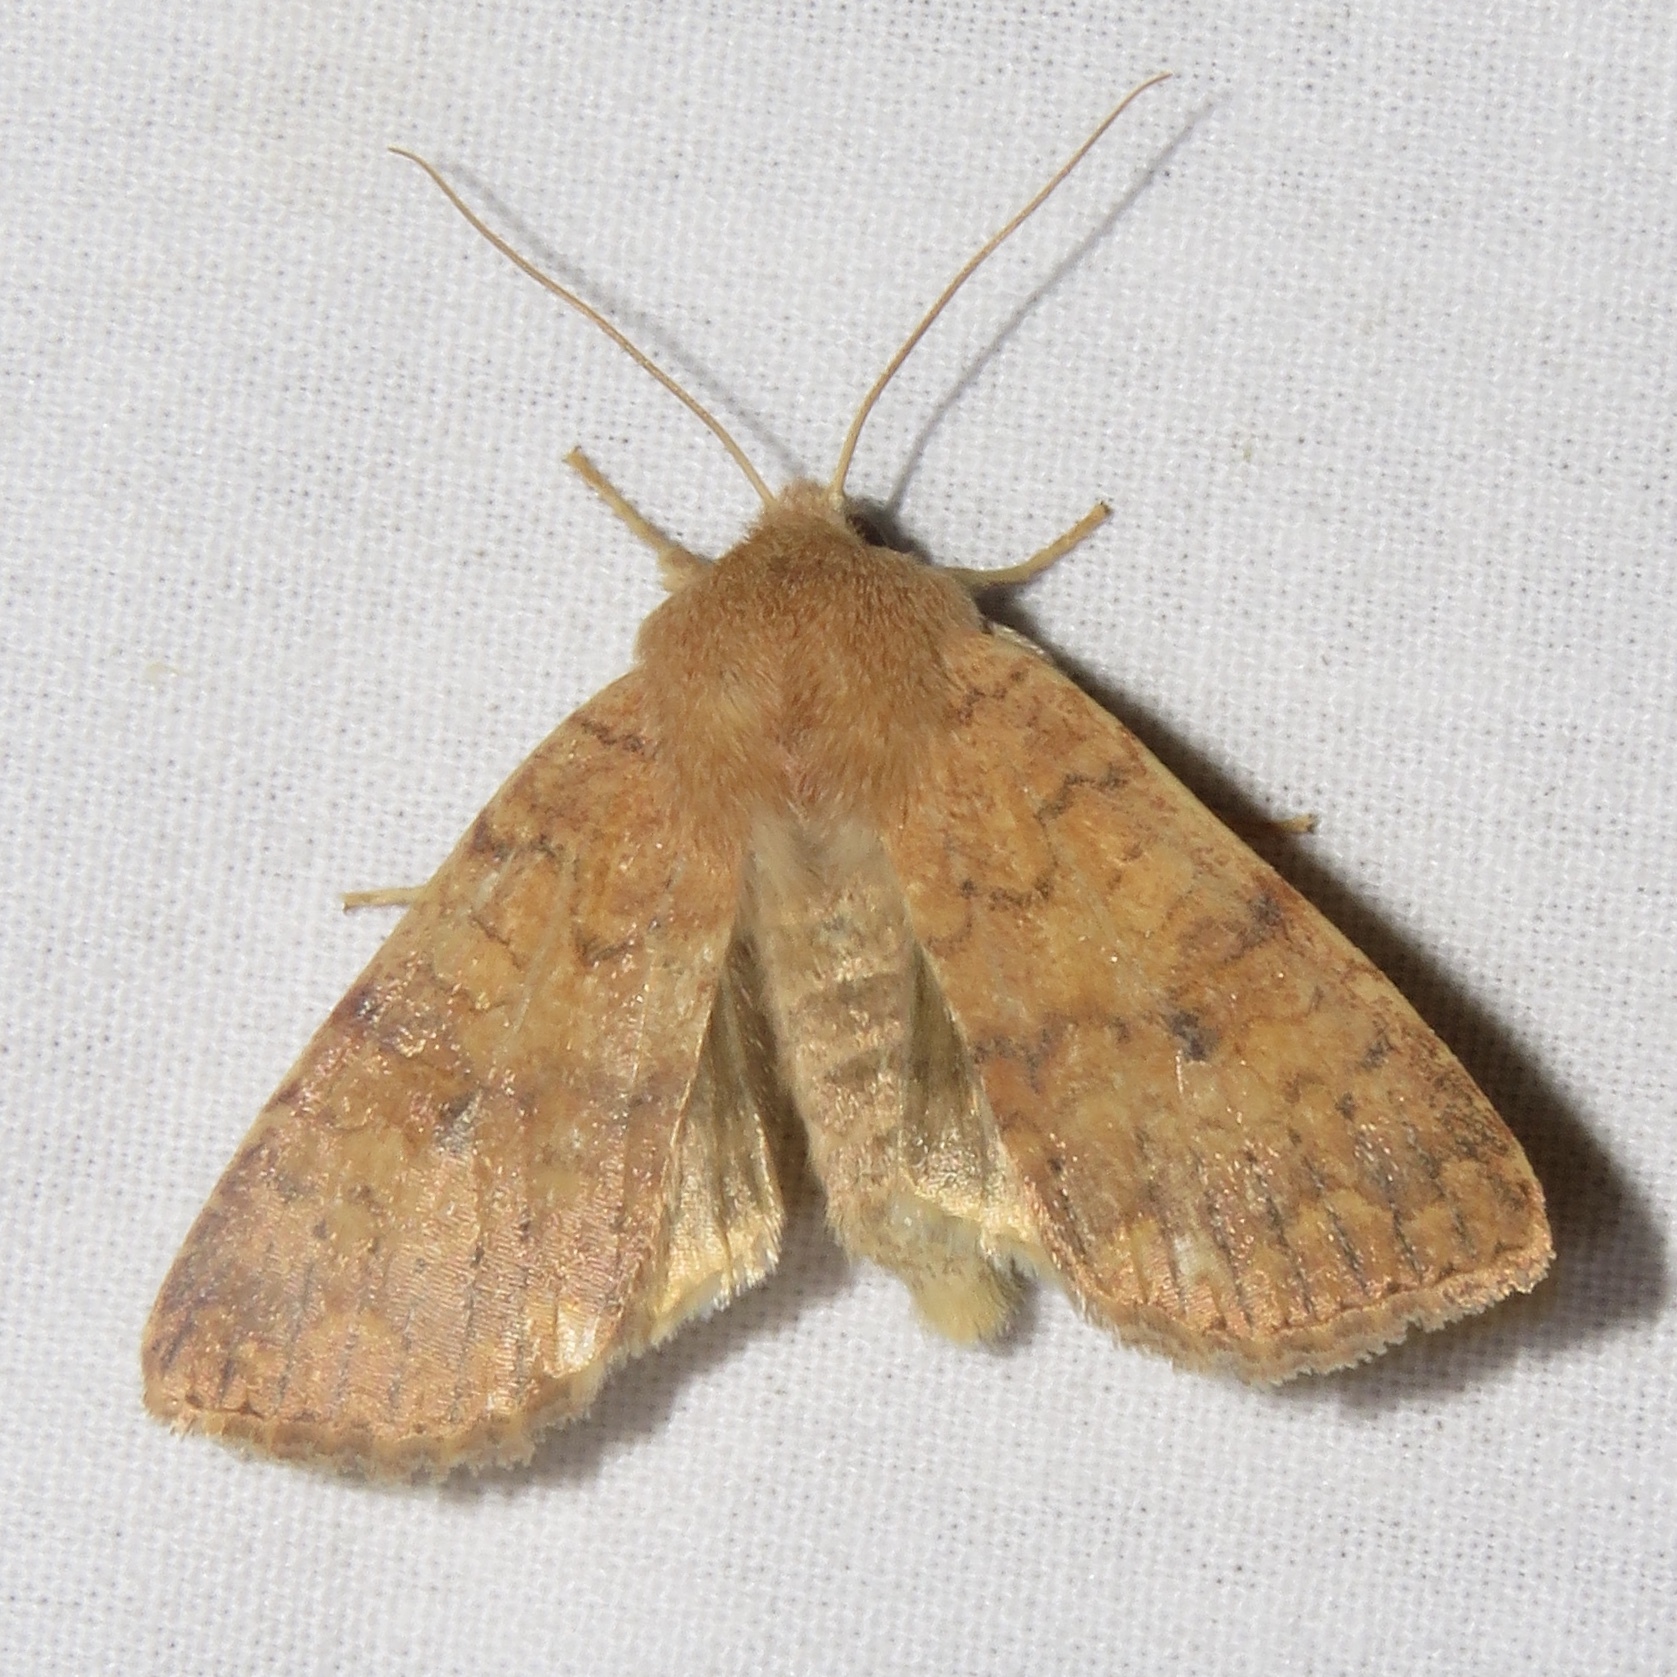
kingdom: Animalia
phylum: Arthropoda
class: Insecta
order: Lepidoptera
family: Noctuidae
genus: Agrochola
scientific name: Agrochola bicolorago
